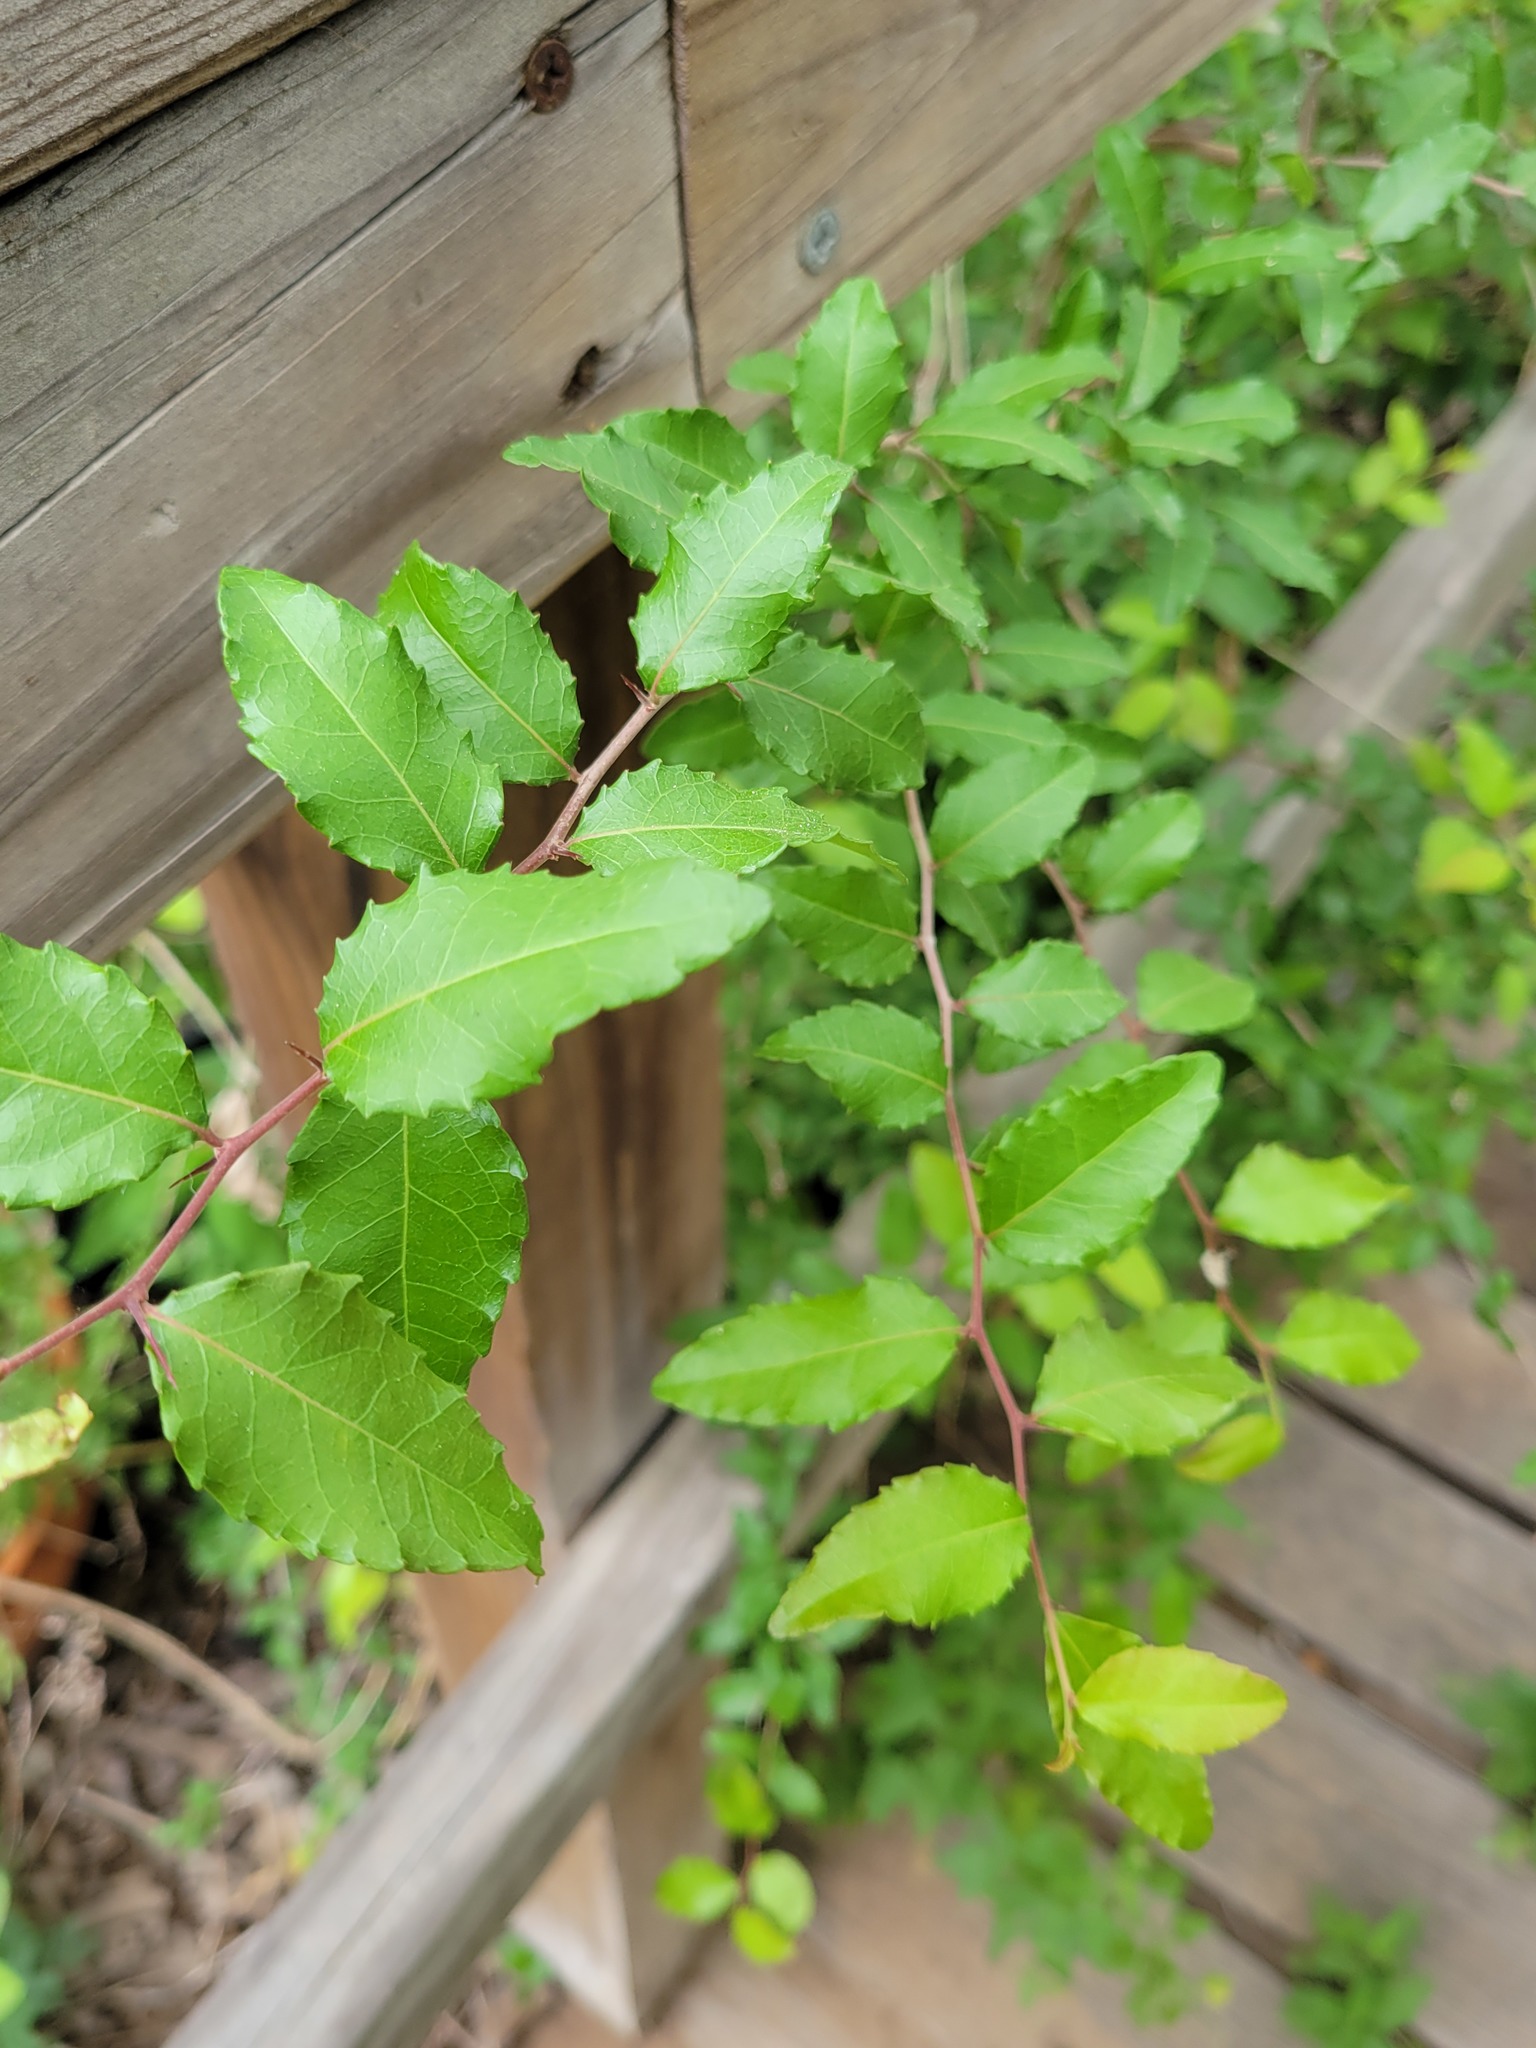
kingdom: Plantae
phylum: Tracheophyta
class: Magnoliopsida
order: Malpighiales
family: Salicaceae
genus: Xylosma
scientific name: Xylosma flexuosa
